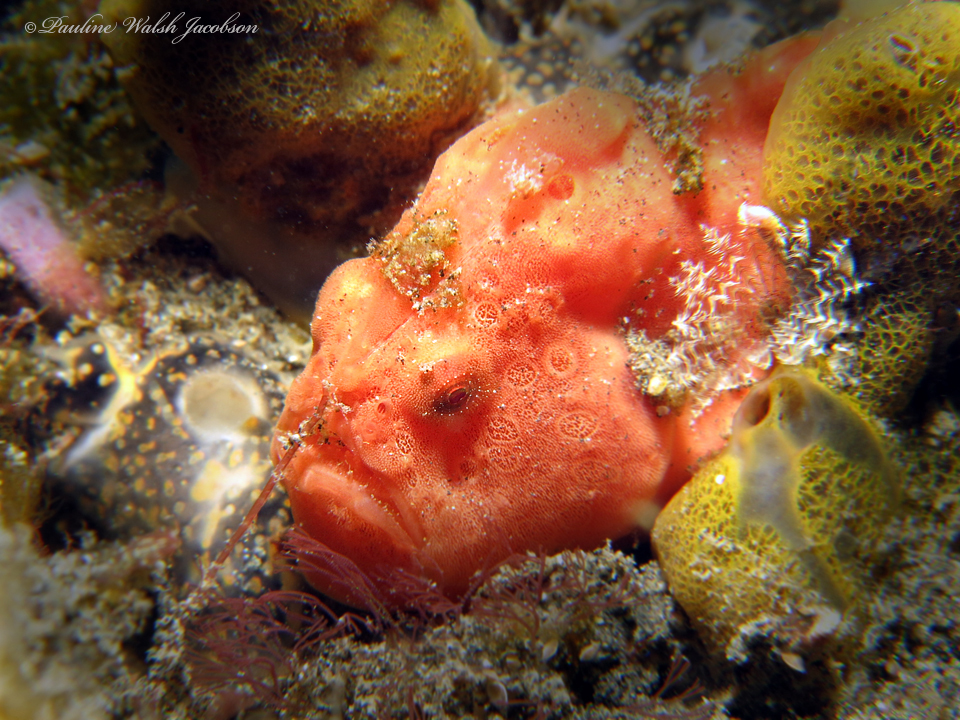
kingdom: Animalia
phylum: Chordata
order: Lophiiformes
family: Antennariidae
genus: Antennarius
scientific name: Antennarius pictus
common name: Painted frogfish
